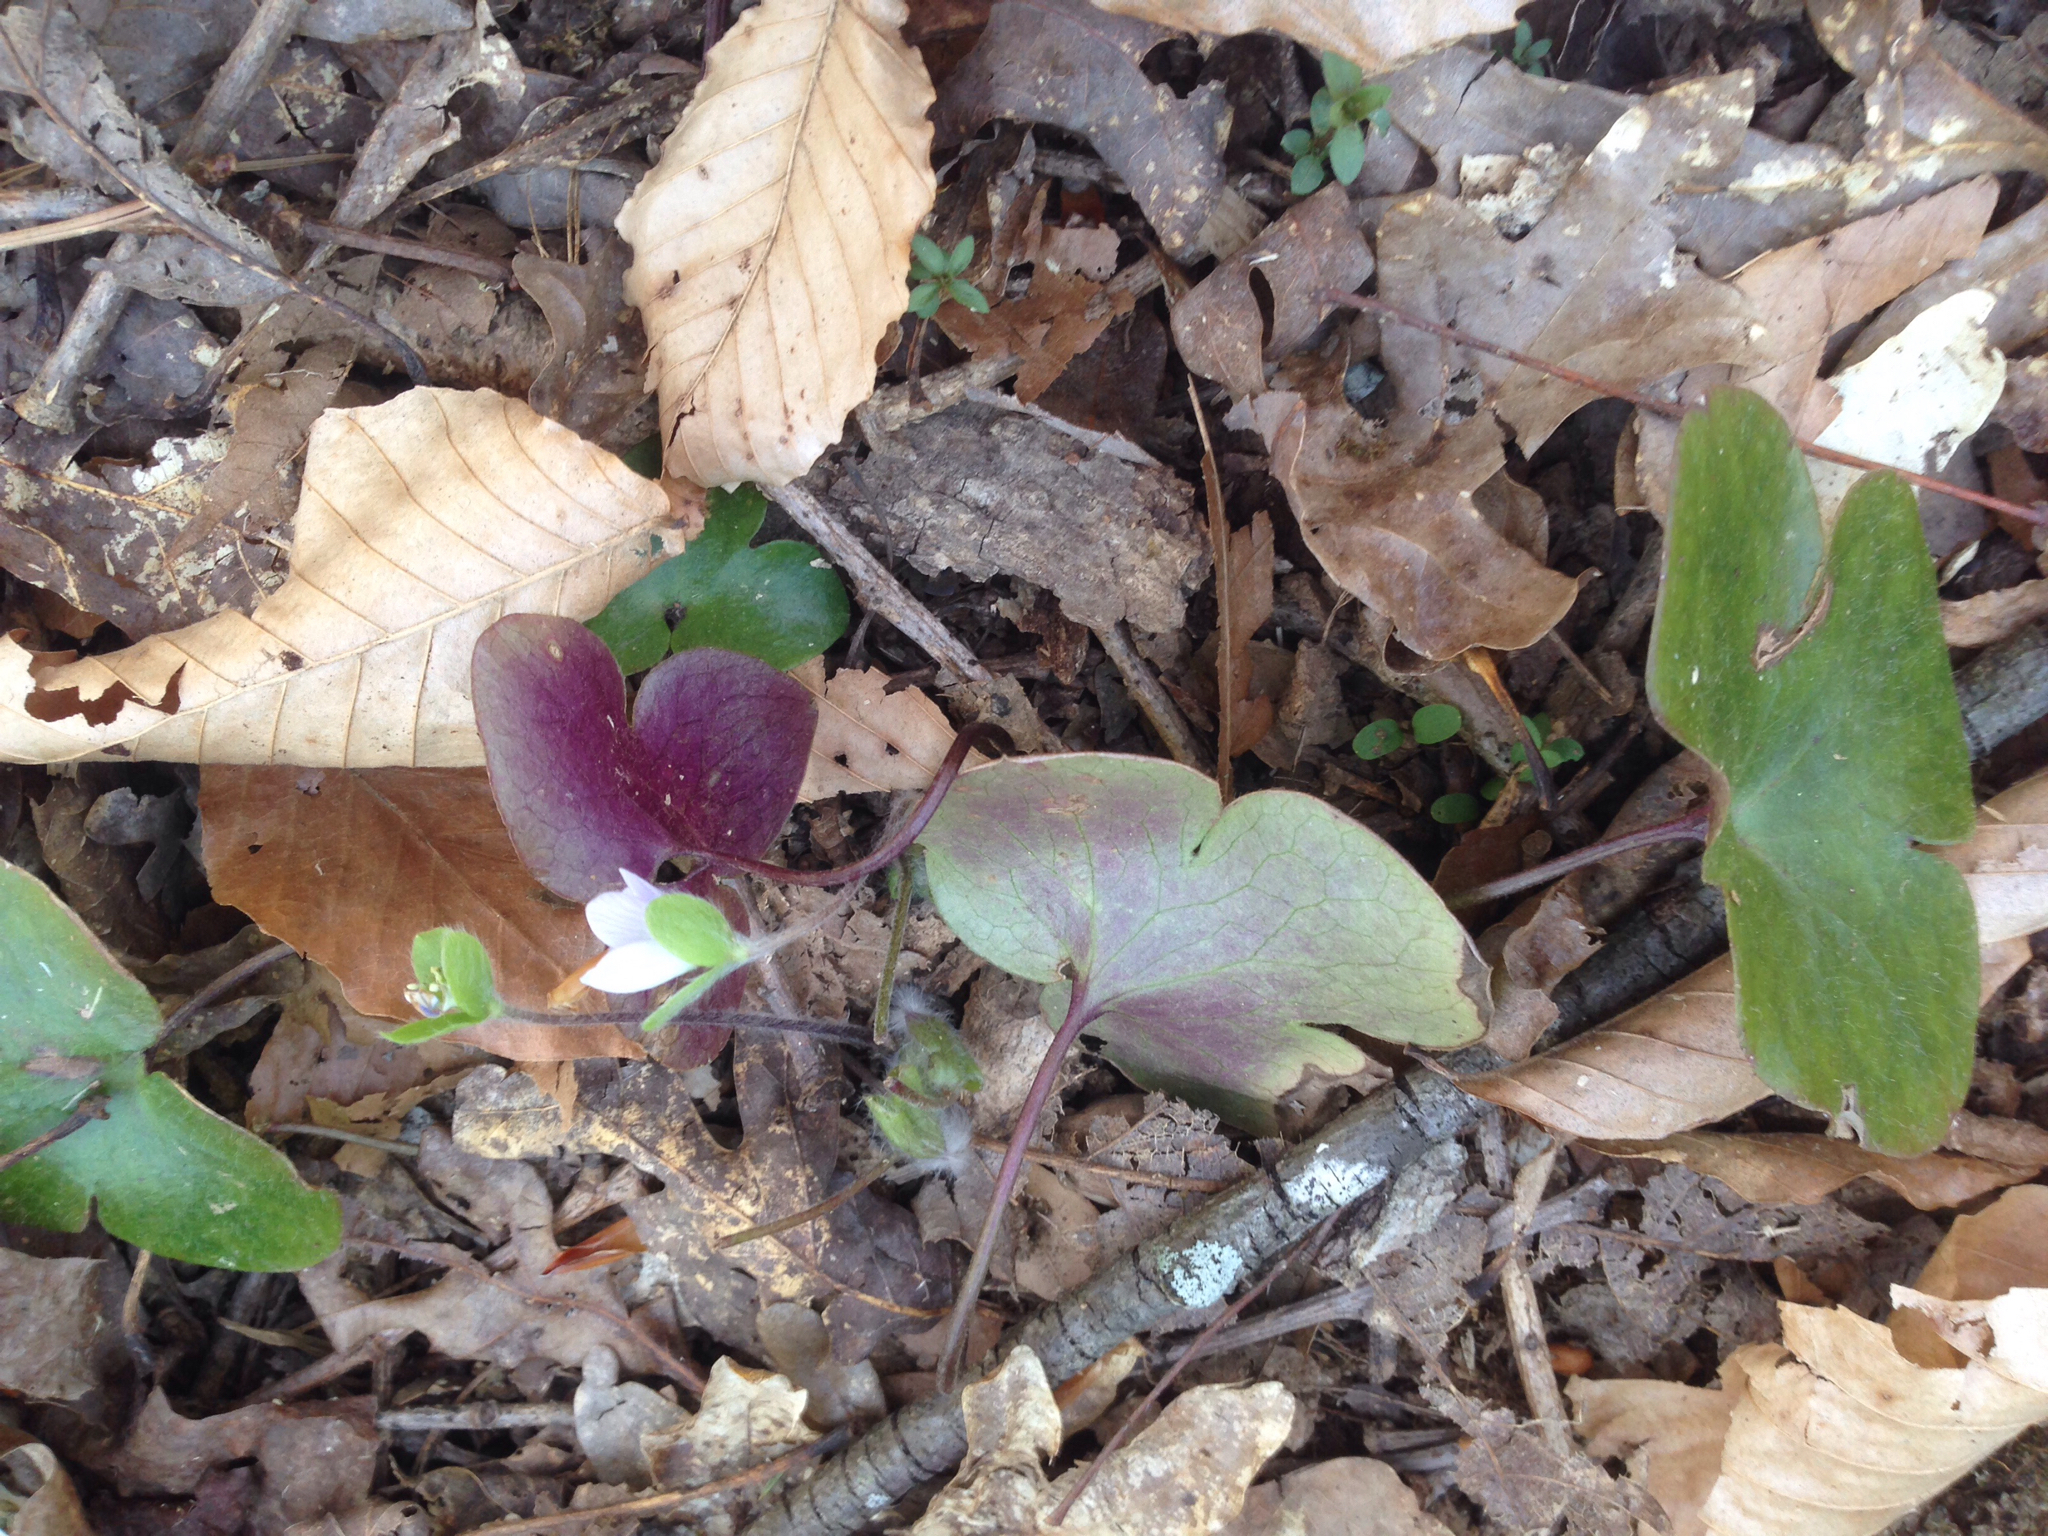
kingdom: Plantae
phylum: Tracheophyta
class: Magnoliopsida
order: Ranunculales
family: Ranunculaceae
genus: Hepatica
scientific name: Hepatica americana
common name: American hepatica
